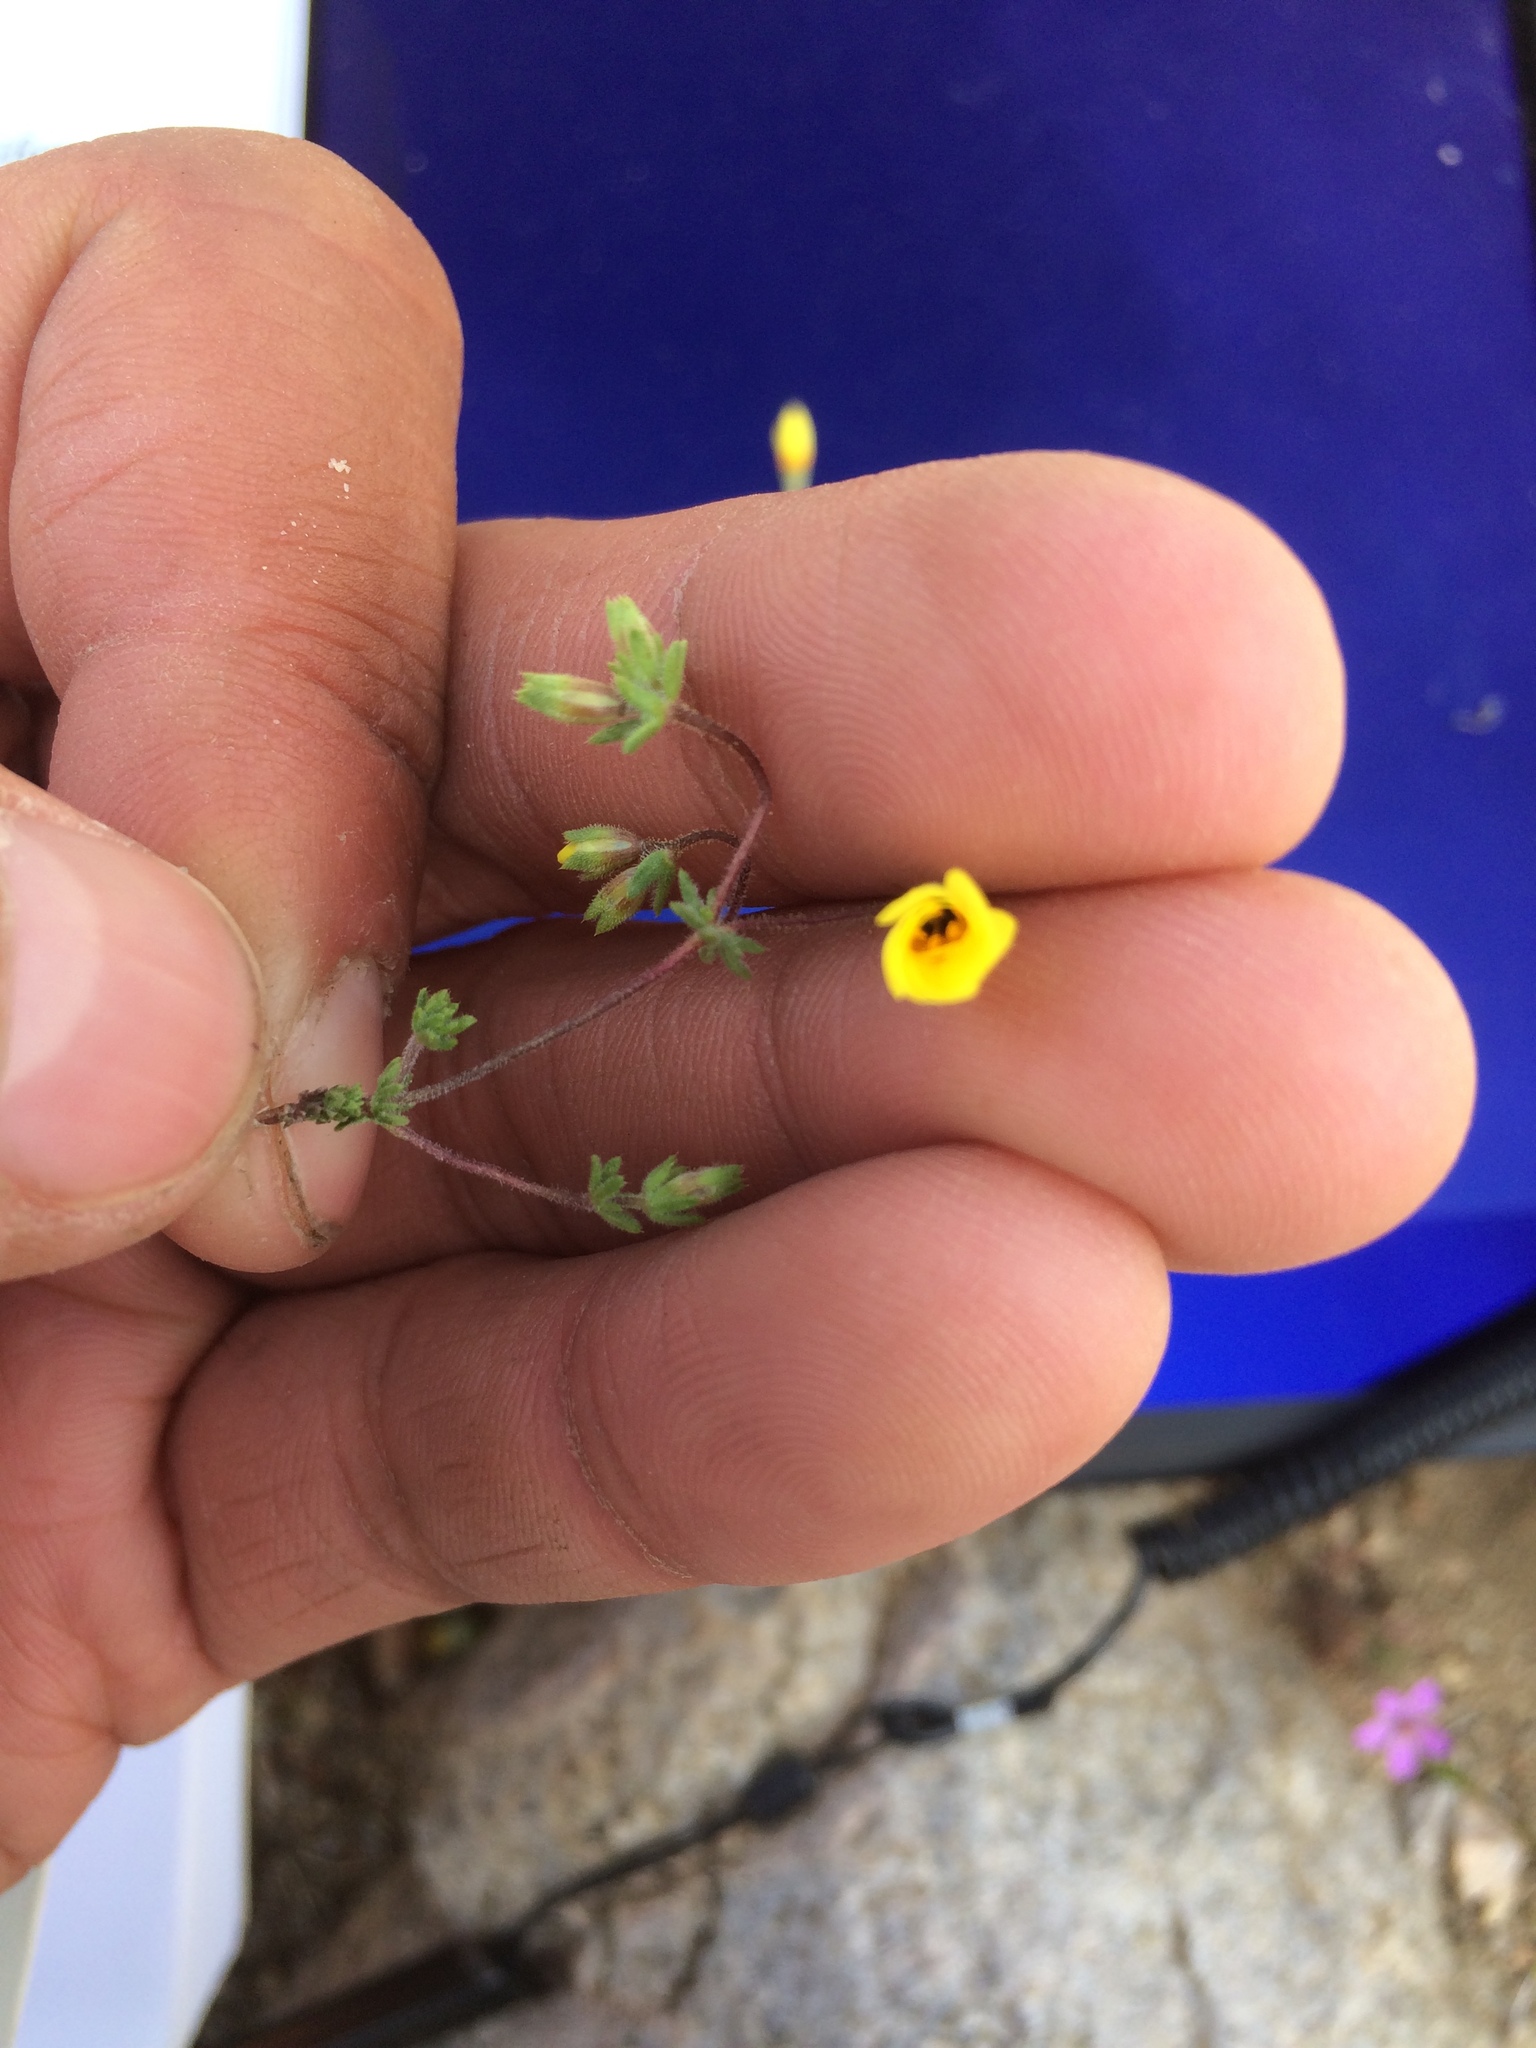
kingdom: Plantae
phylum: Tracheophyta
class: Magnoliopsida
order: Ericales
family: Polemoniaceae
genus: Leptosiphon
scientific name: Leptosiphon chrysanthus
